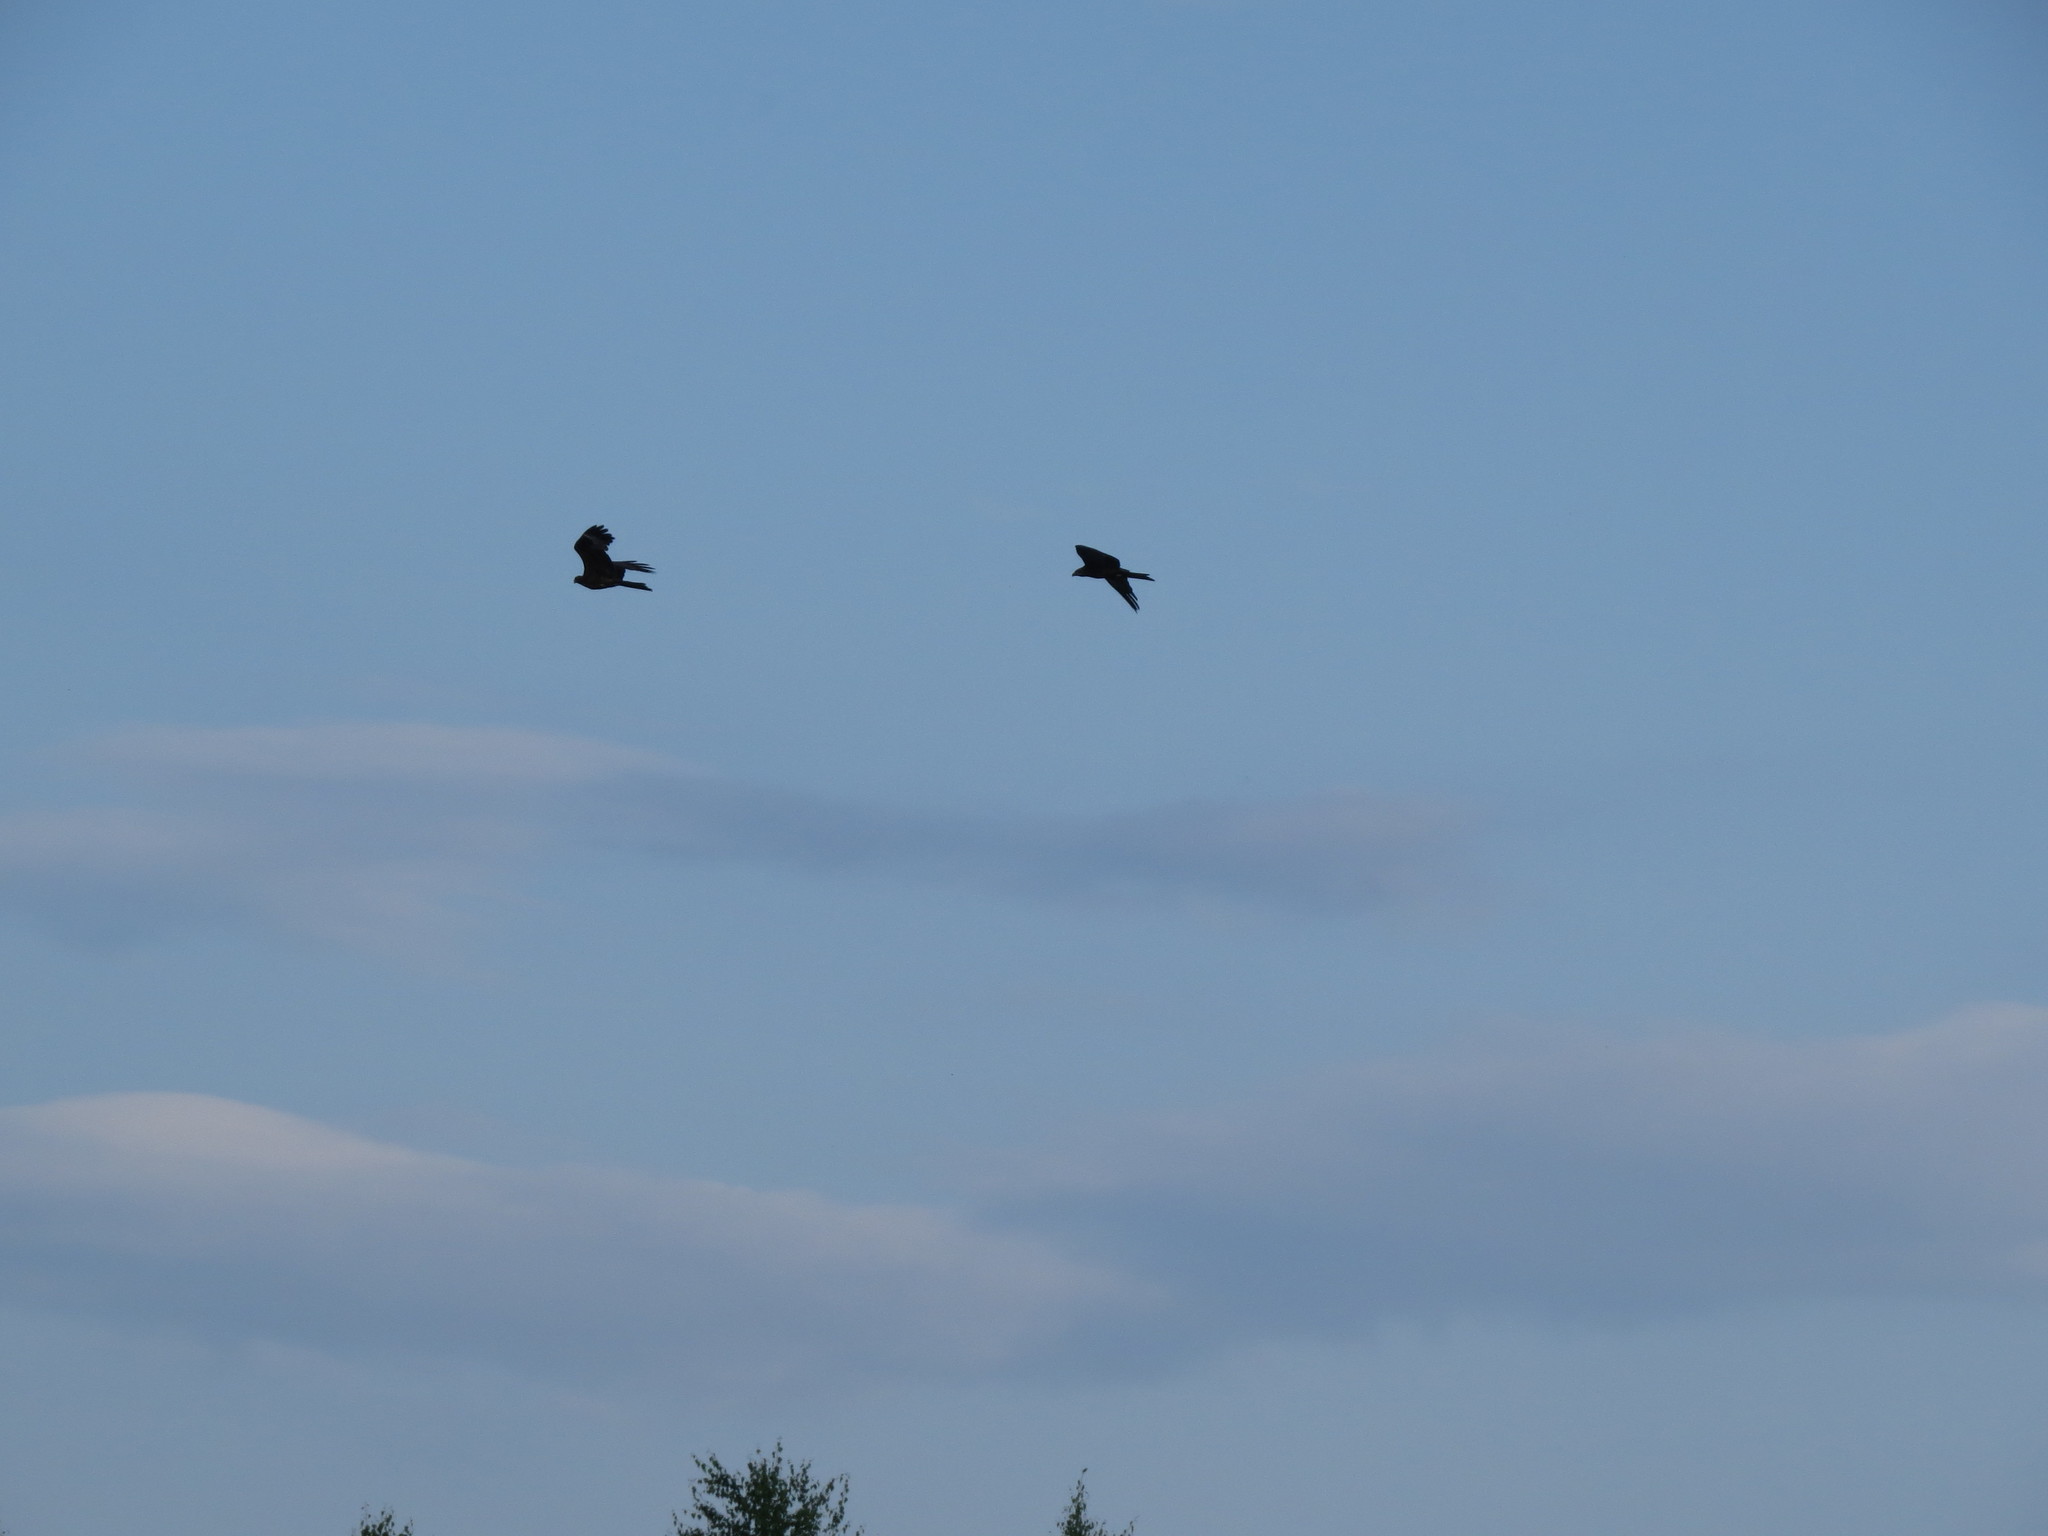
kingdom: Animalia
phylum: Chordata
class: Aves
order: Accipitriformes
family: Accipitridae
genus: Milvus
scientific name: Milvus migrans
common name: Black kite
